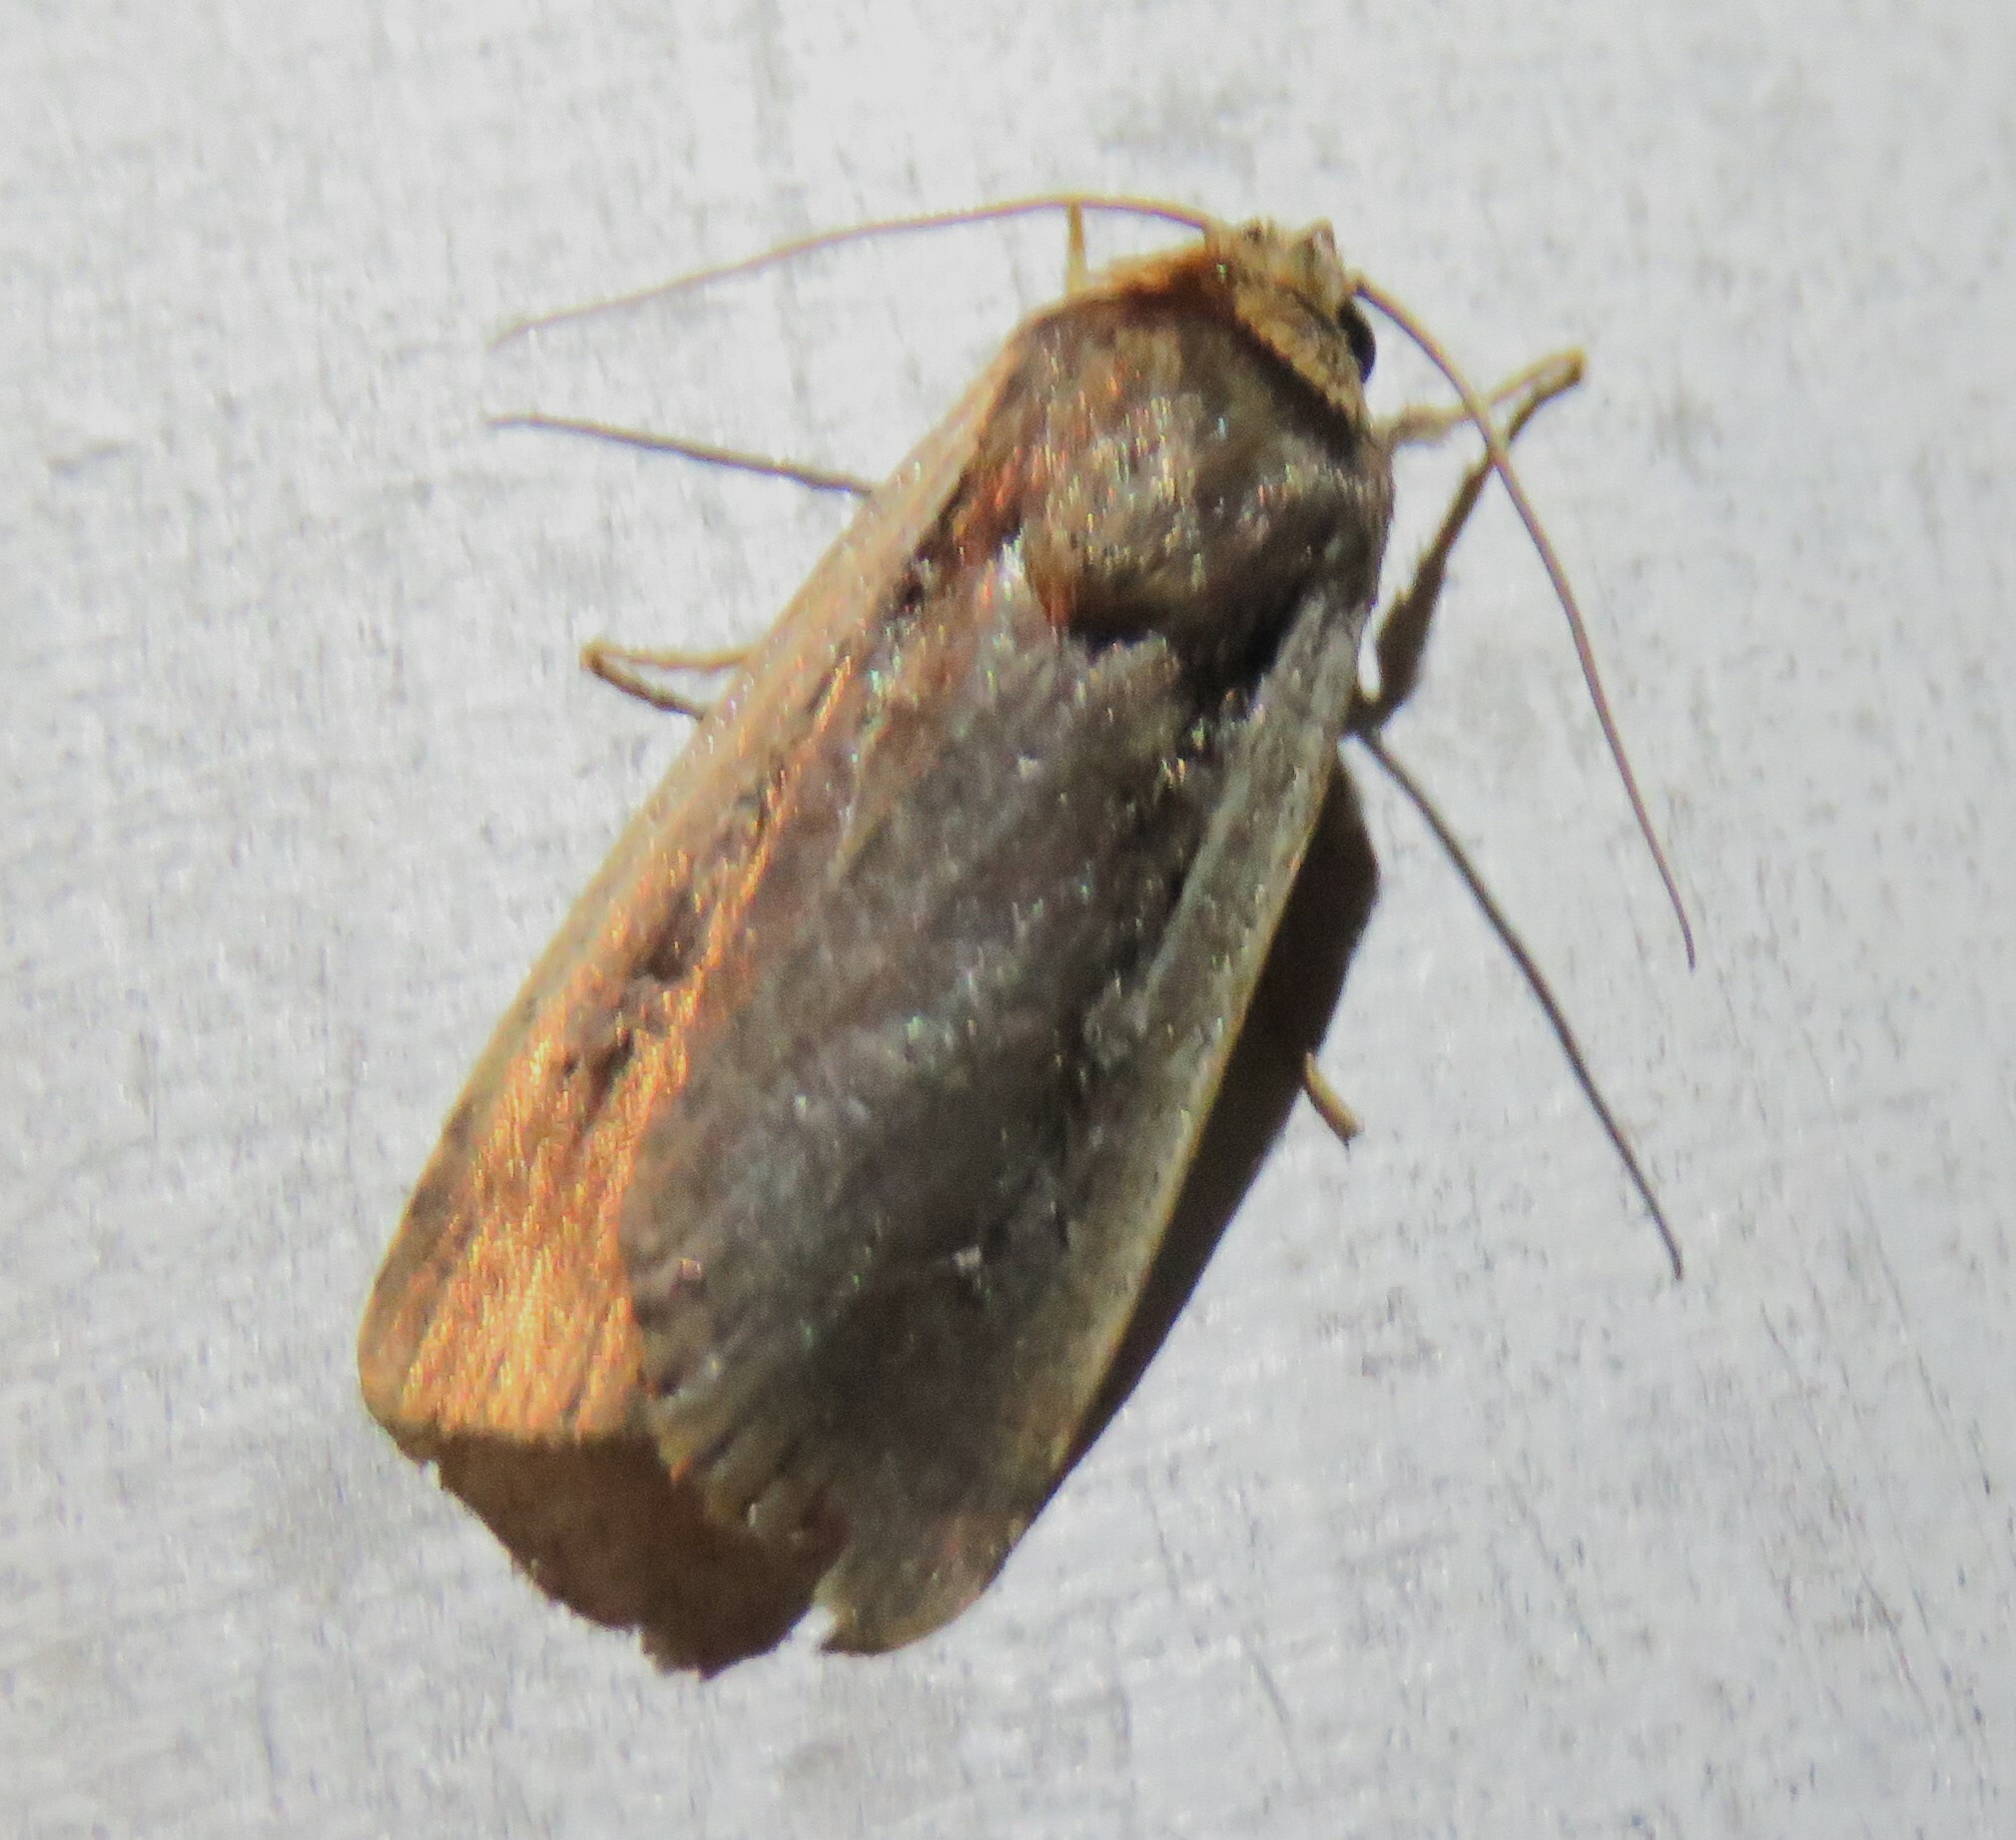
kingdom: Animalia
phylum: Arthropoda
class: Insecta
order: Lepidoptera
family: Noctuidae
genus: Ochropleura
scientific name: Ochropleura implecta
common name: Flame-shouldered dart
